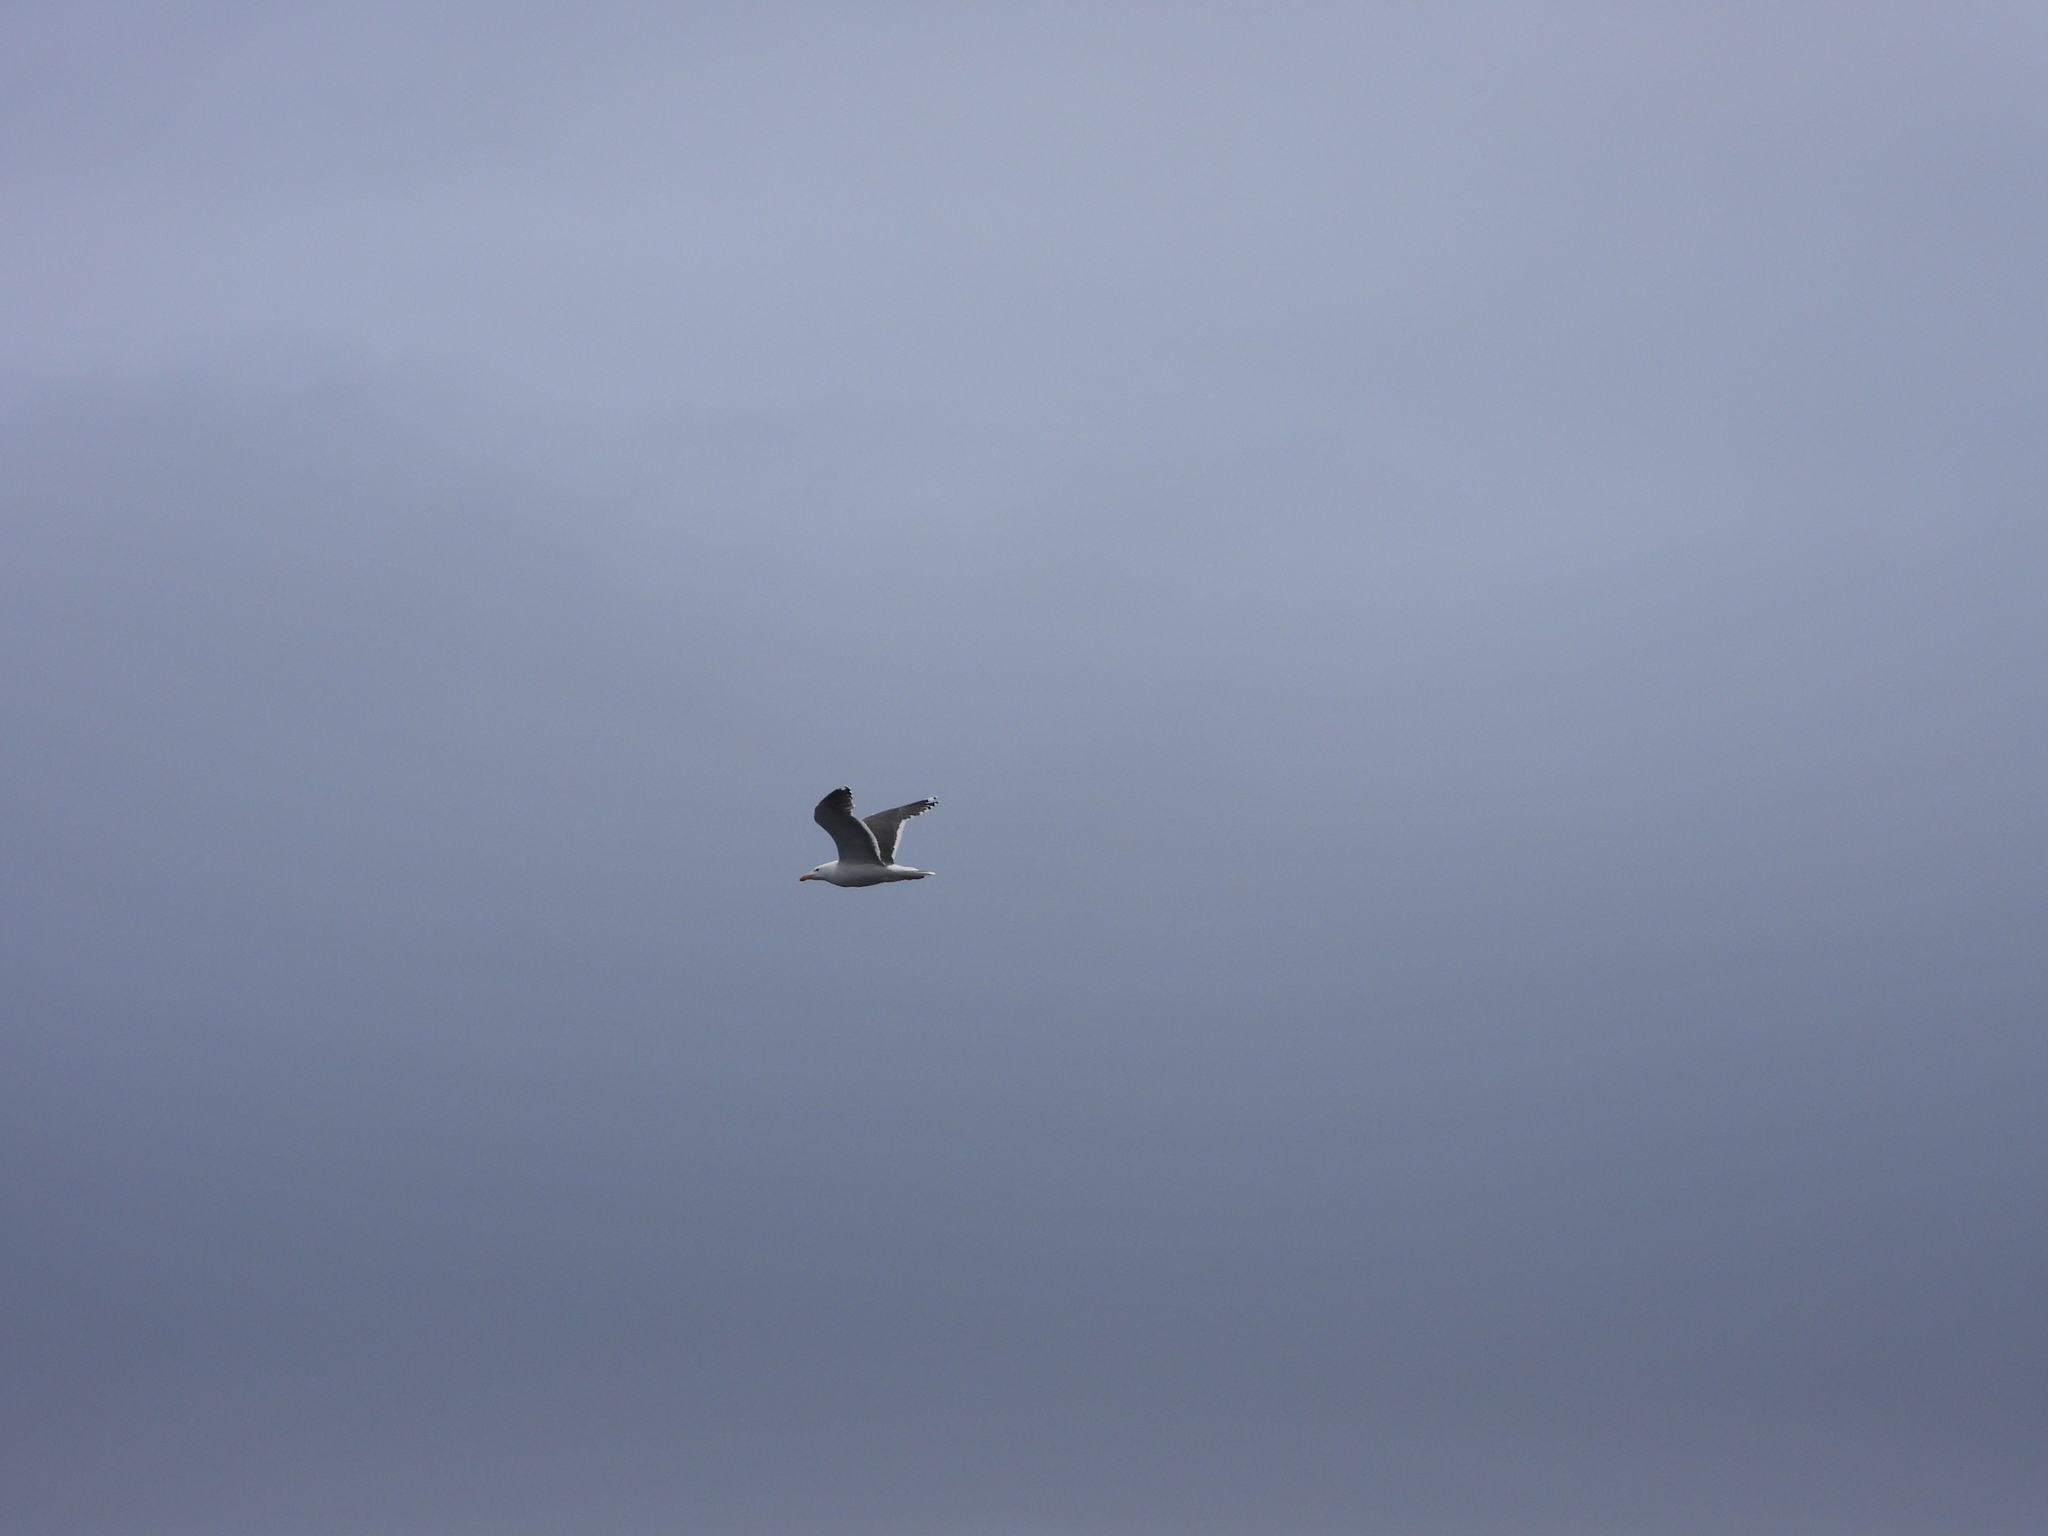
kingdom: Animalia
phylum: Chordata
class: Aves
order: Charadriiformes
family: Laridae
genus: Larus
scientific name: Larus marinus
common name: Great black-backed gull
